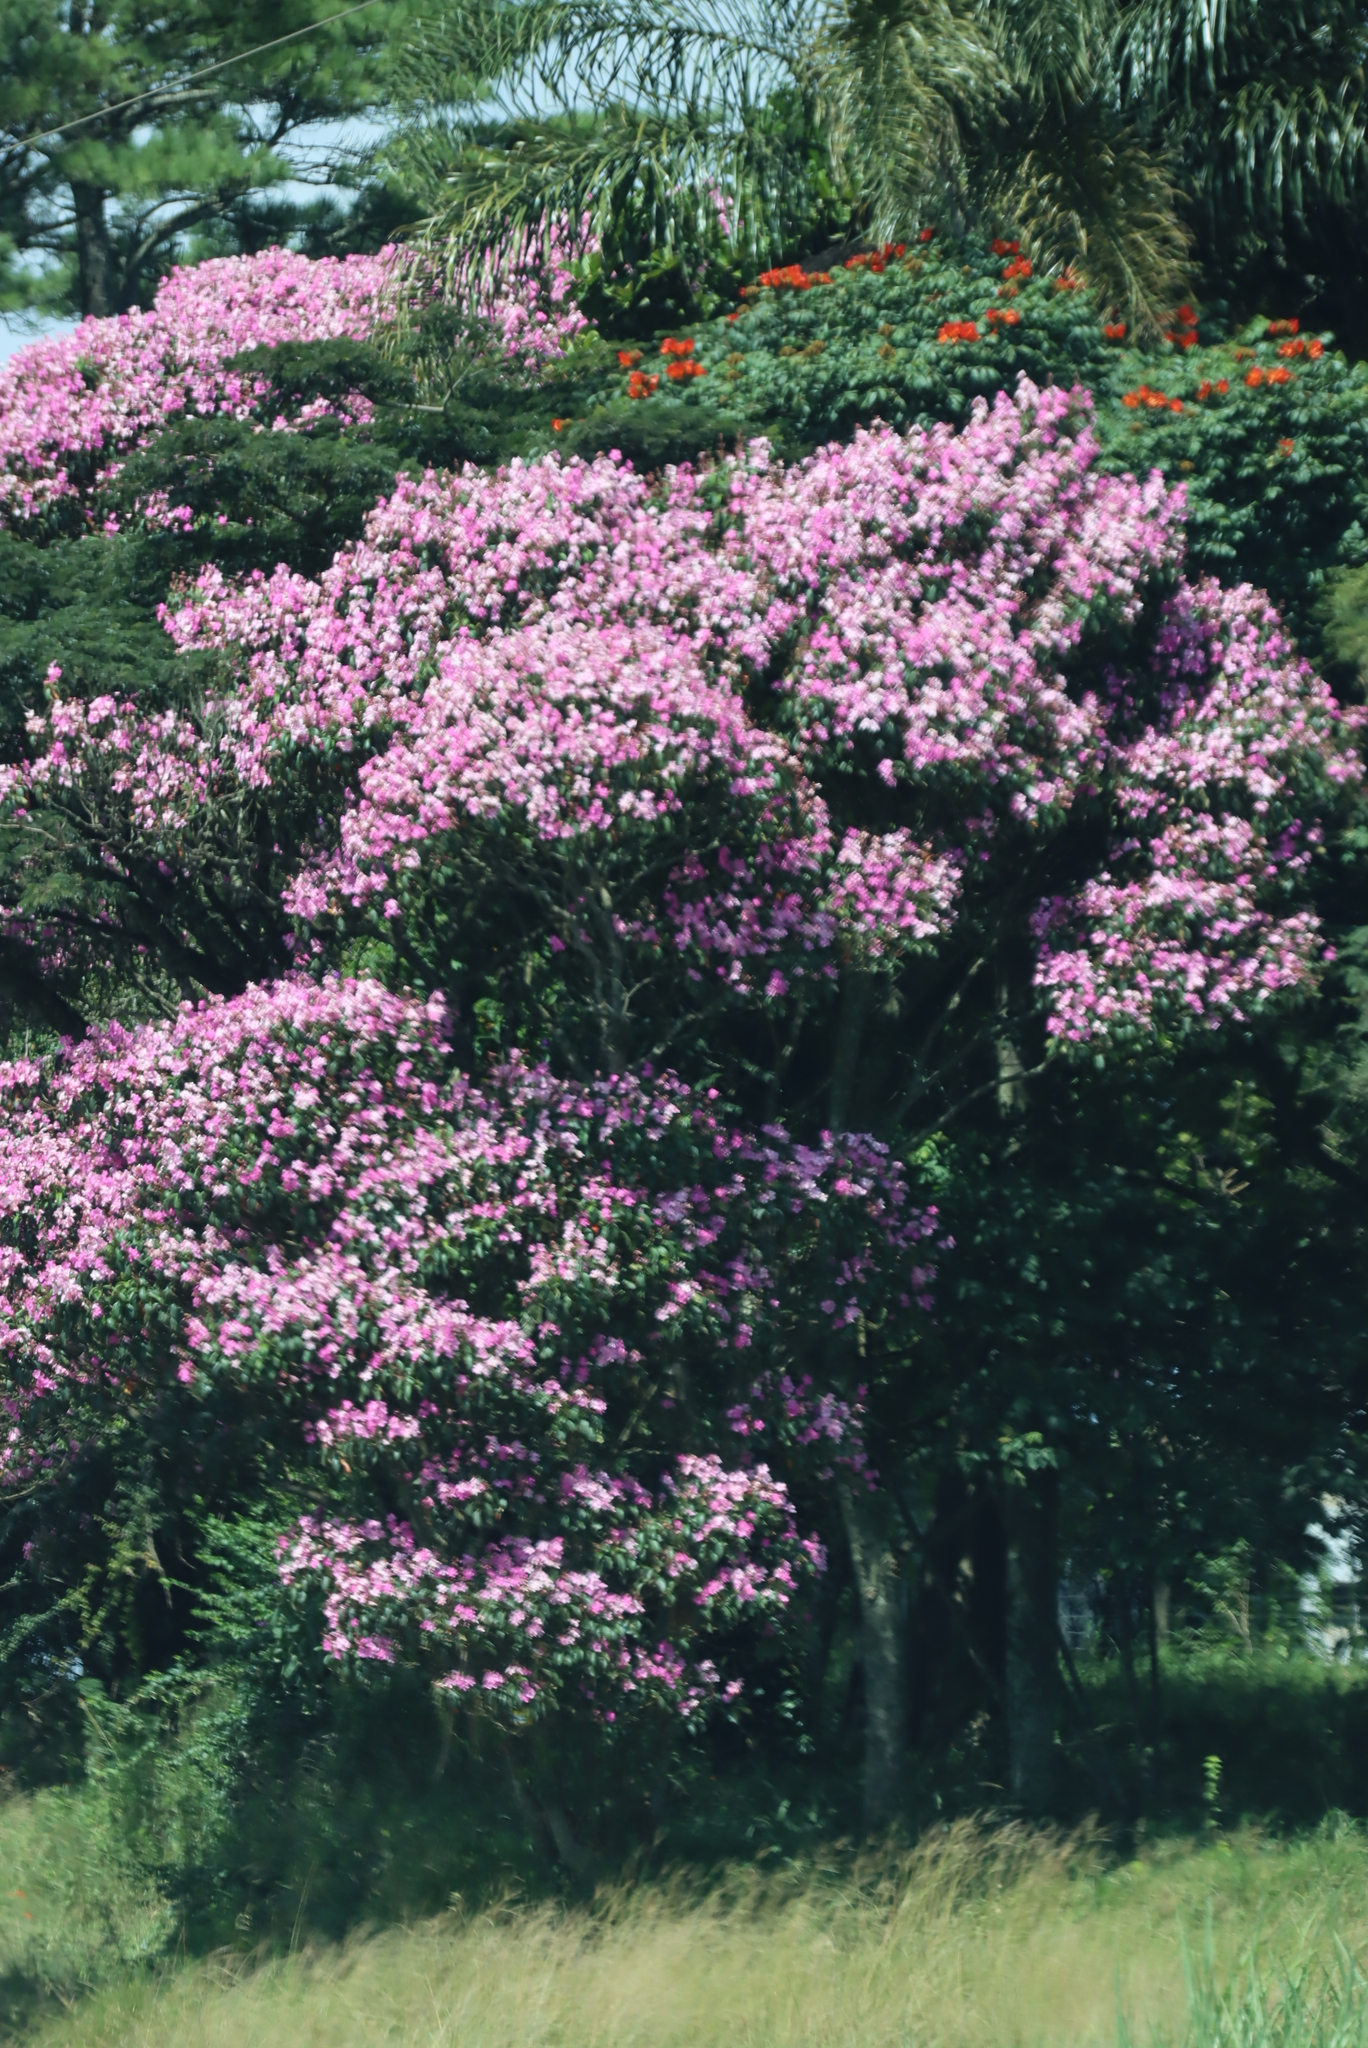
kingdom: Plantae
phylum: Tracheophyta
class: Magnoliopsida
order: Myrtales
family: Melastomataceae
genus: Pleroma
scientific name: Pleroma granulosum
